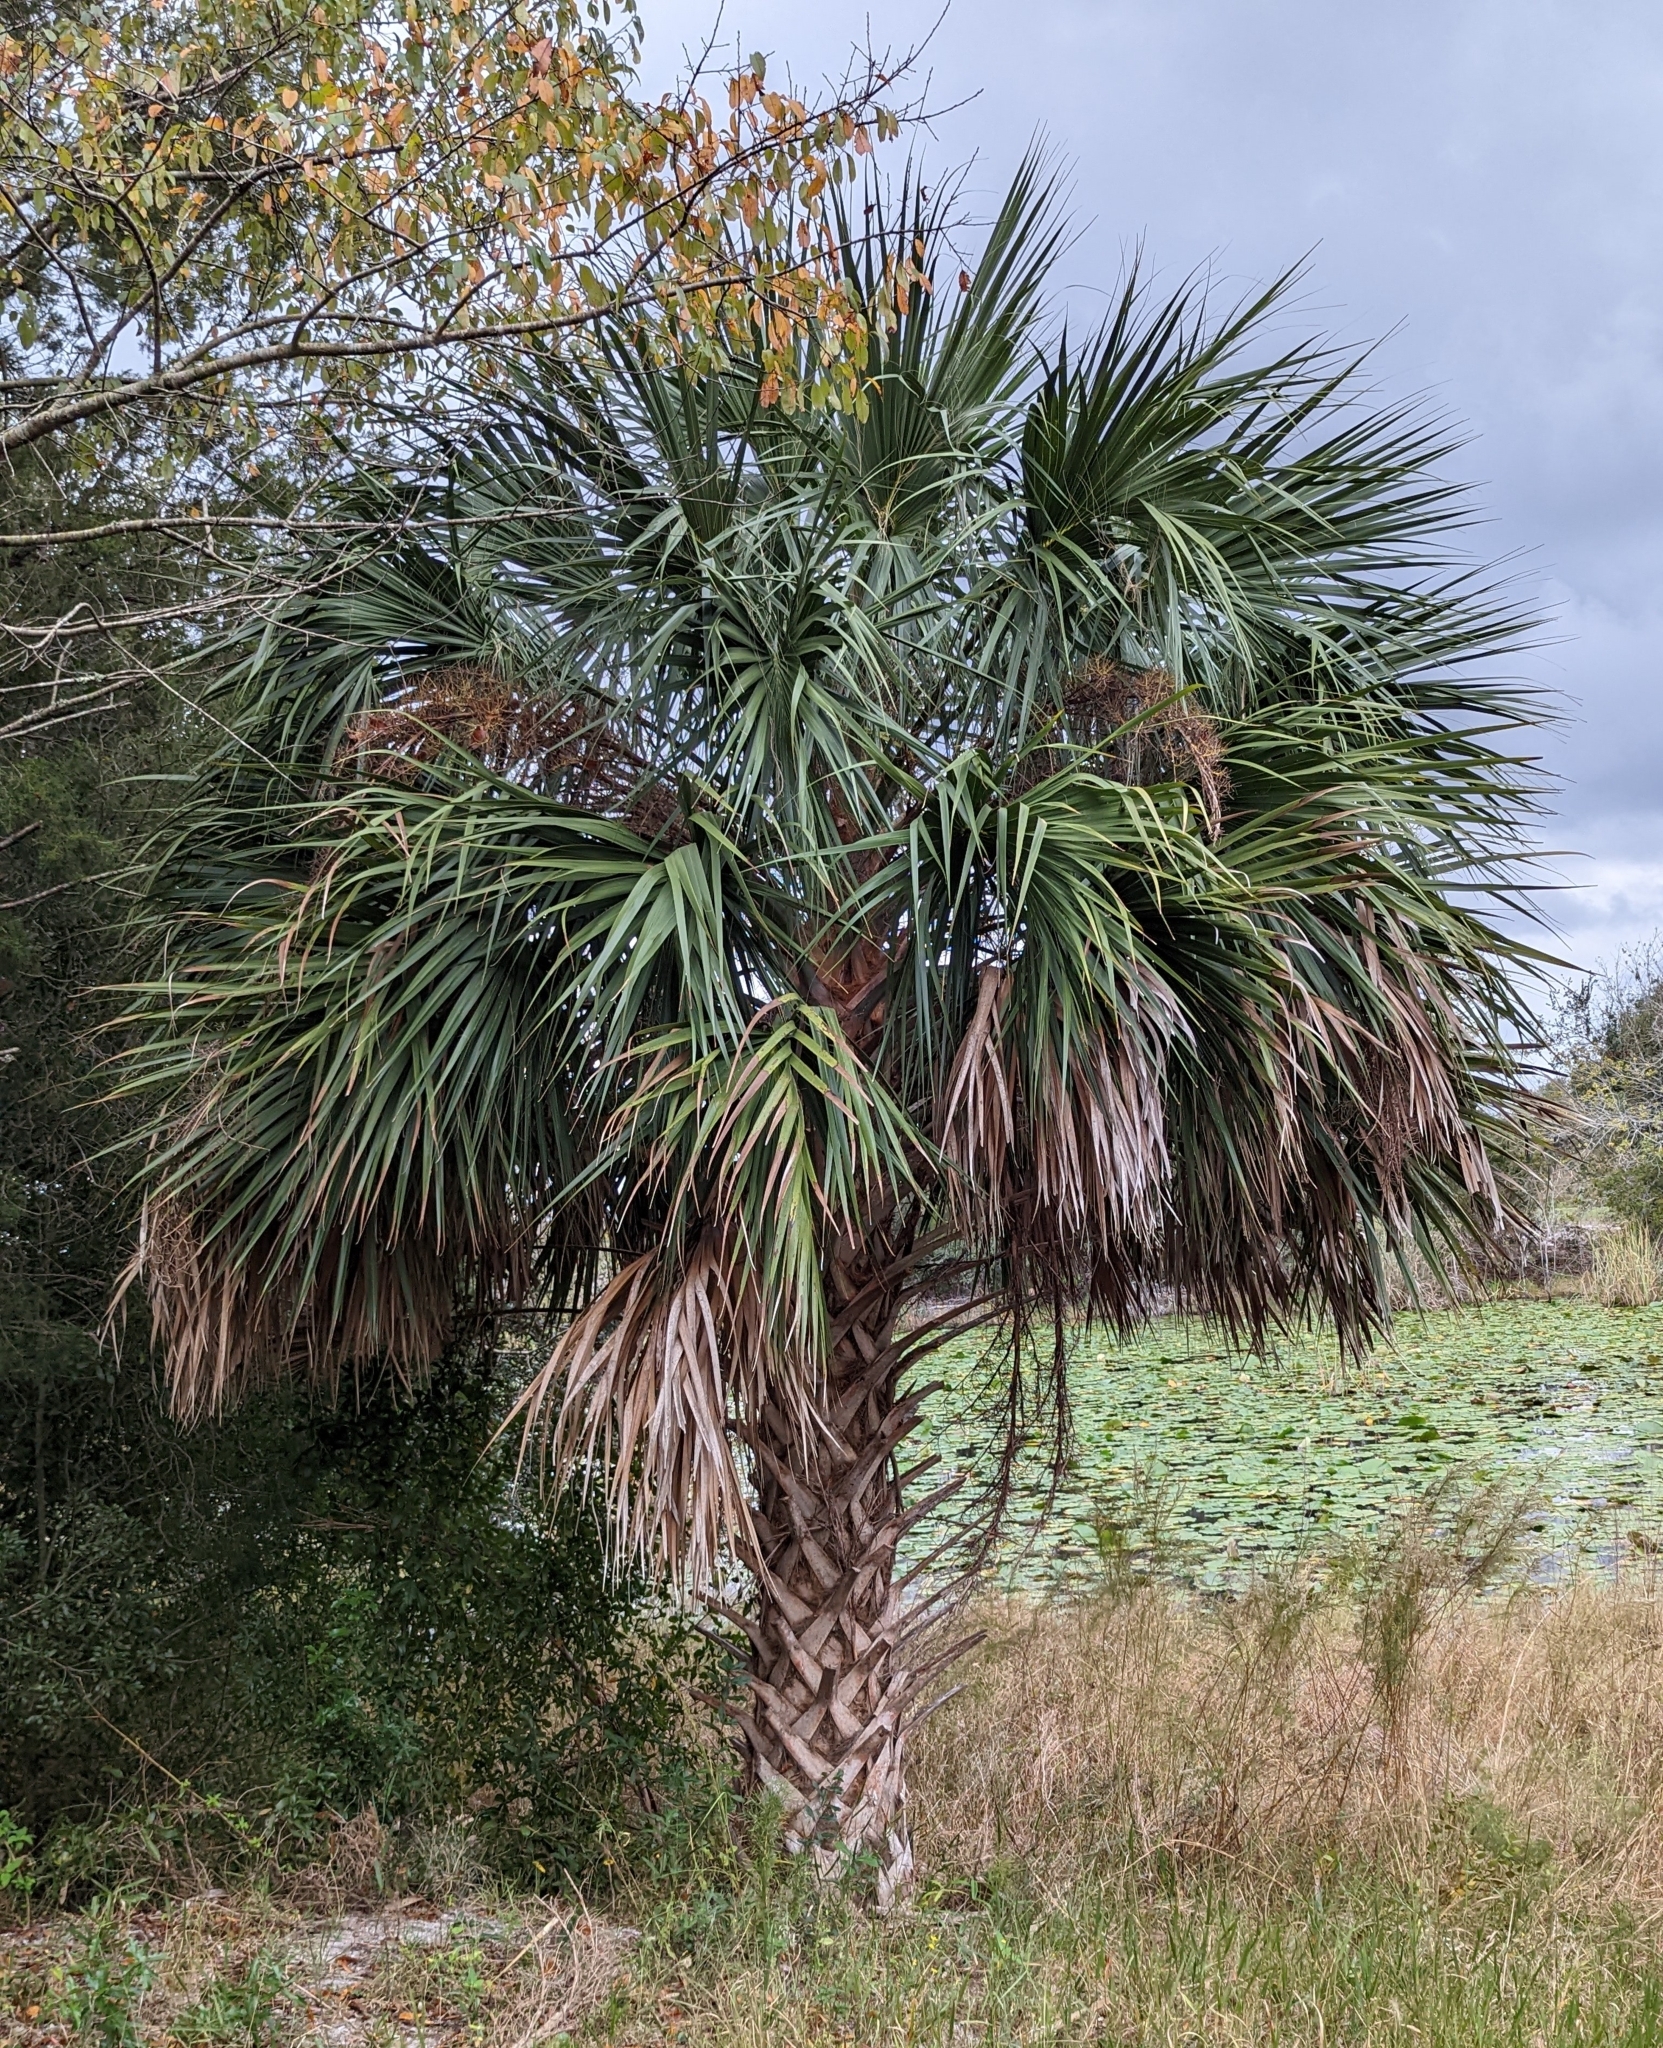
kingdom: Plantae
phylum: Tracheophyta
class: Liliopsida
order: Arecales
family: Arecaceae
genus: Sabal
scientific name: Sabal palmetto
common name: Blue palmetto
